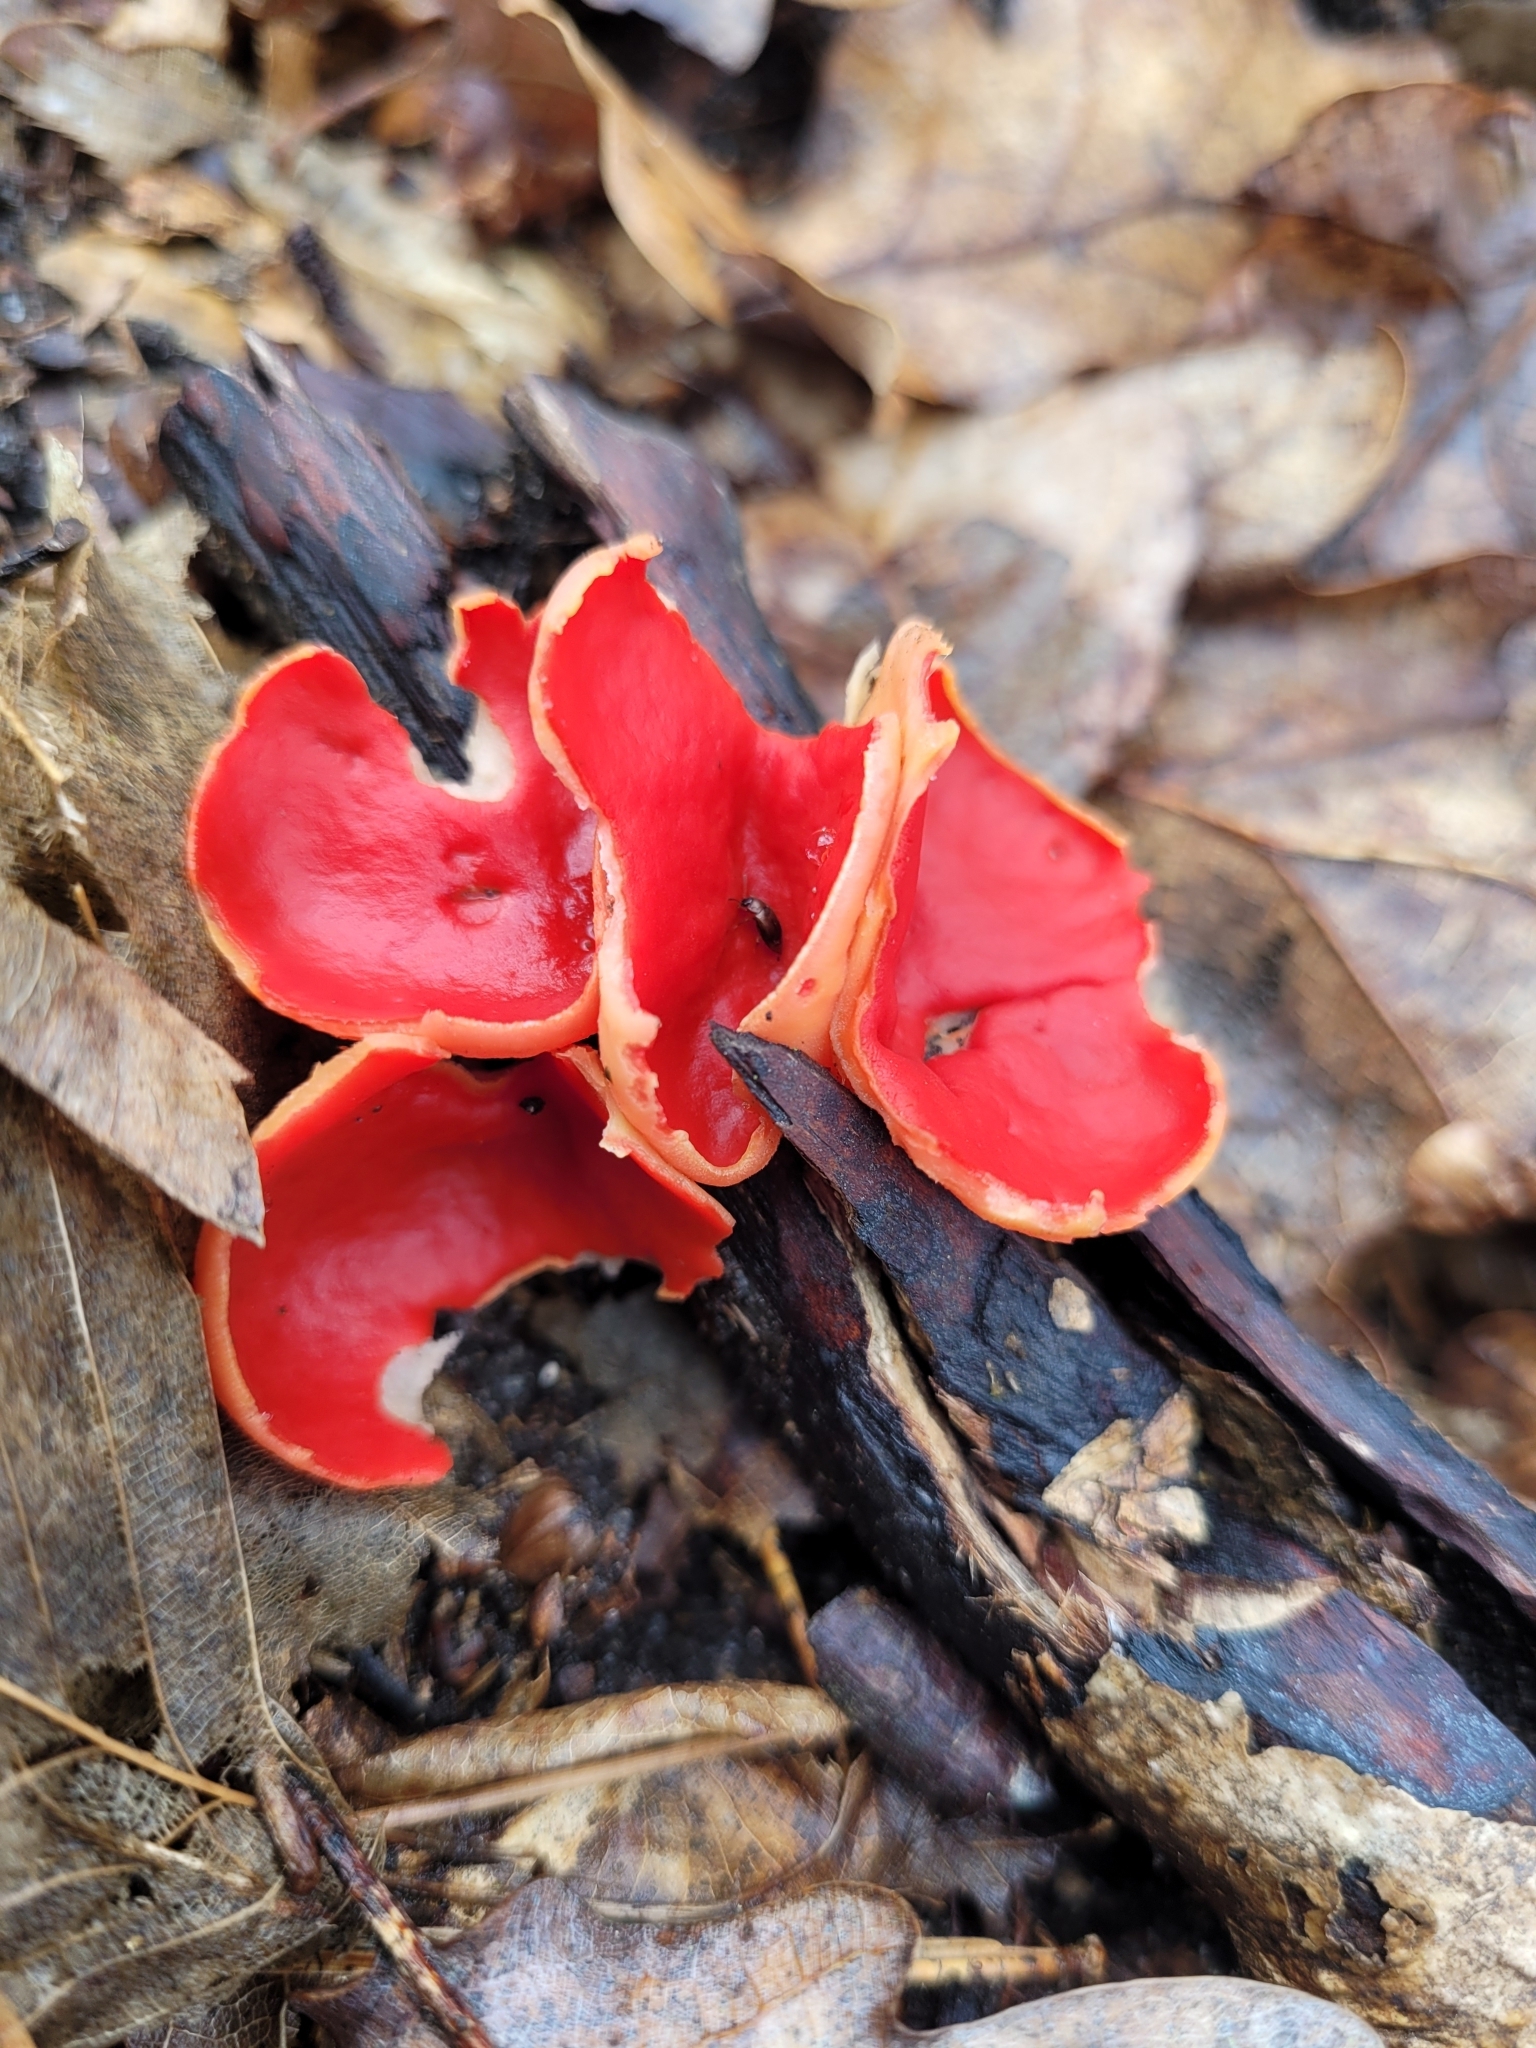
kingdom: Fungi
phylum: Ascomycota
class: Pezizomycetes
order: Pezizales
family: Sarcoscyphaceae
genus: Sarcoscypha
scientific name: Sarcoscypha
